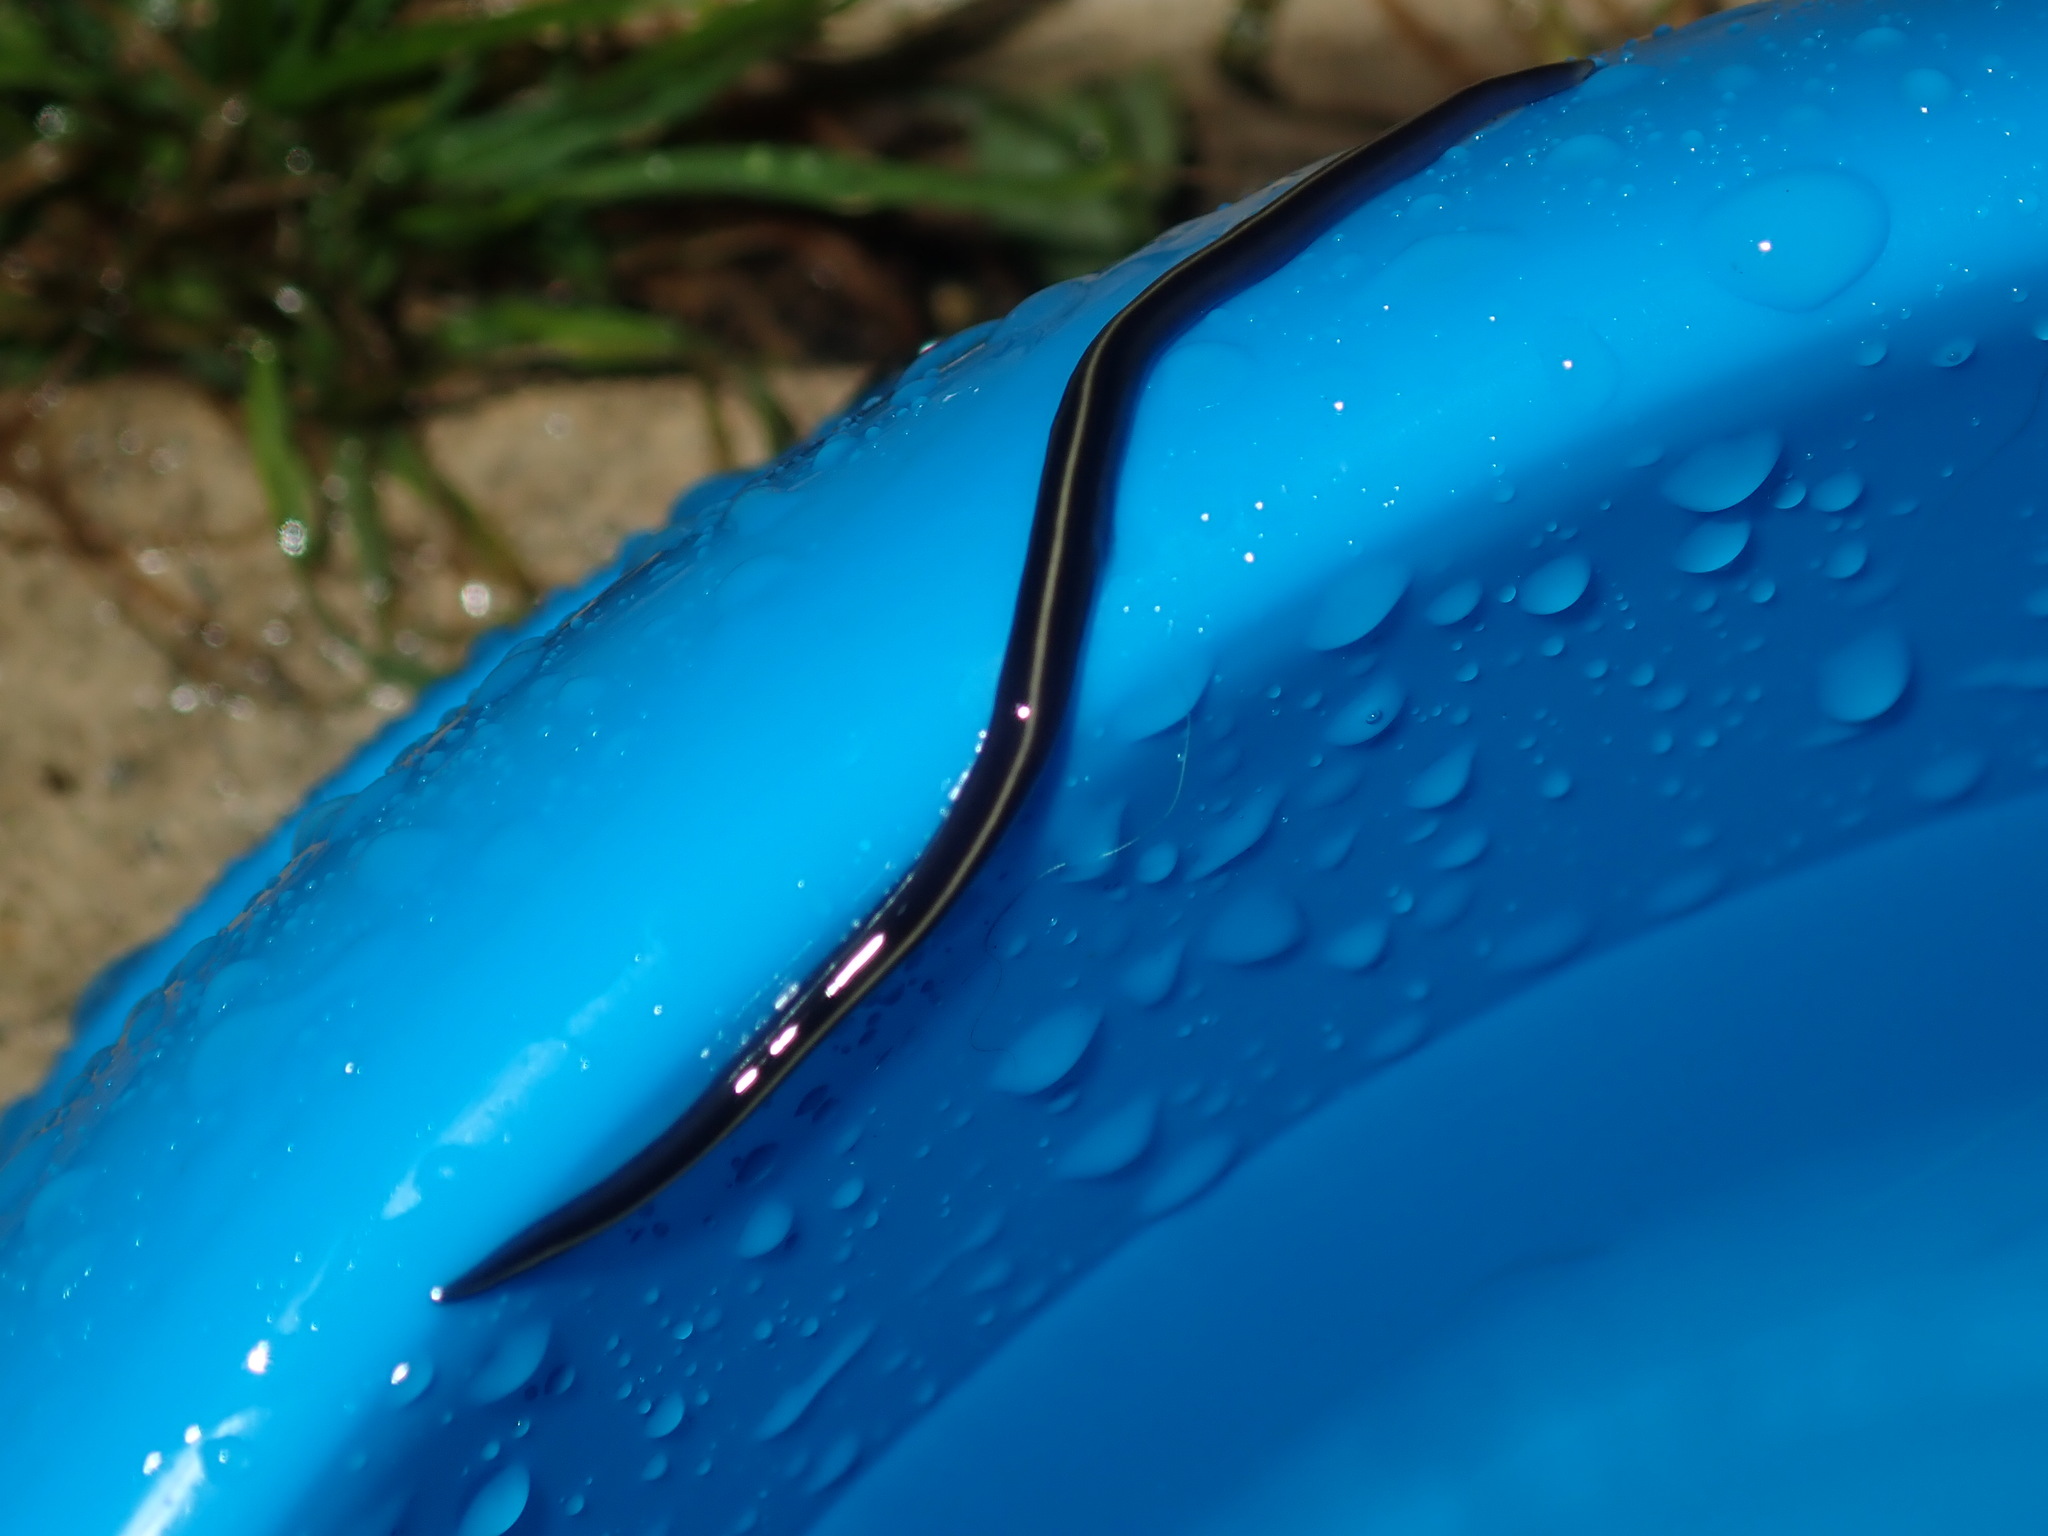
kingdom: Animalia
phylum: Platyhelminthes
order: Tricladida
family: Geoplanidae
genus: Caenoplana
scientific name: Caenoplana coerulea
